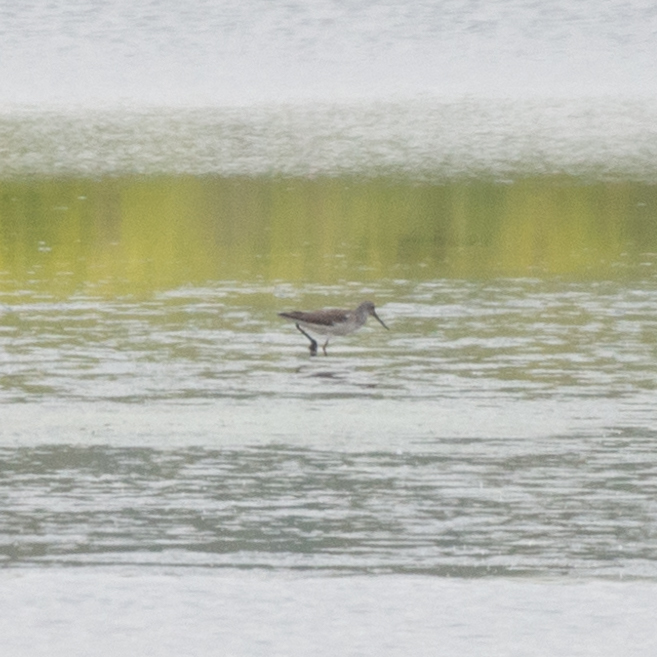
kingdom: Animalia
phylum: Chordata
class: Aves
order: Charadriiformes
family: Scolopacidae
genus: Tringa
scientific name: Tringa nebularia
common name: Common greenshank
